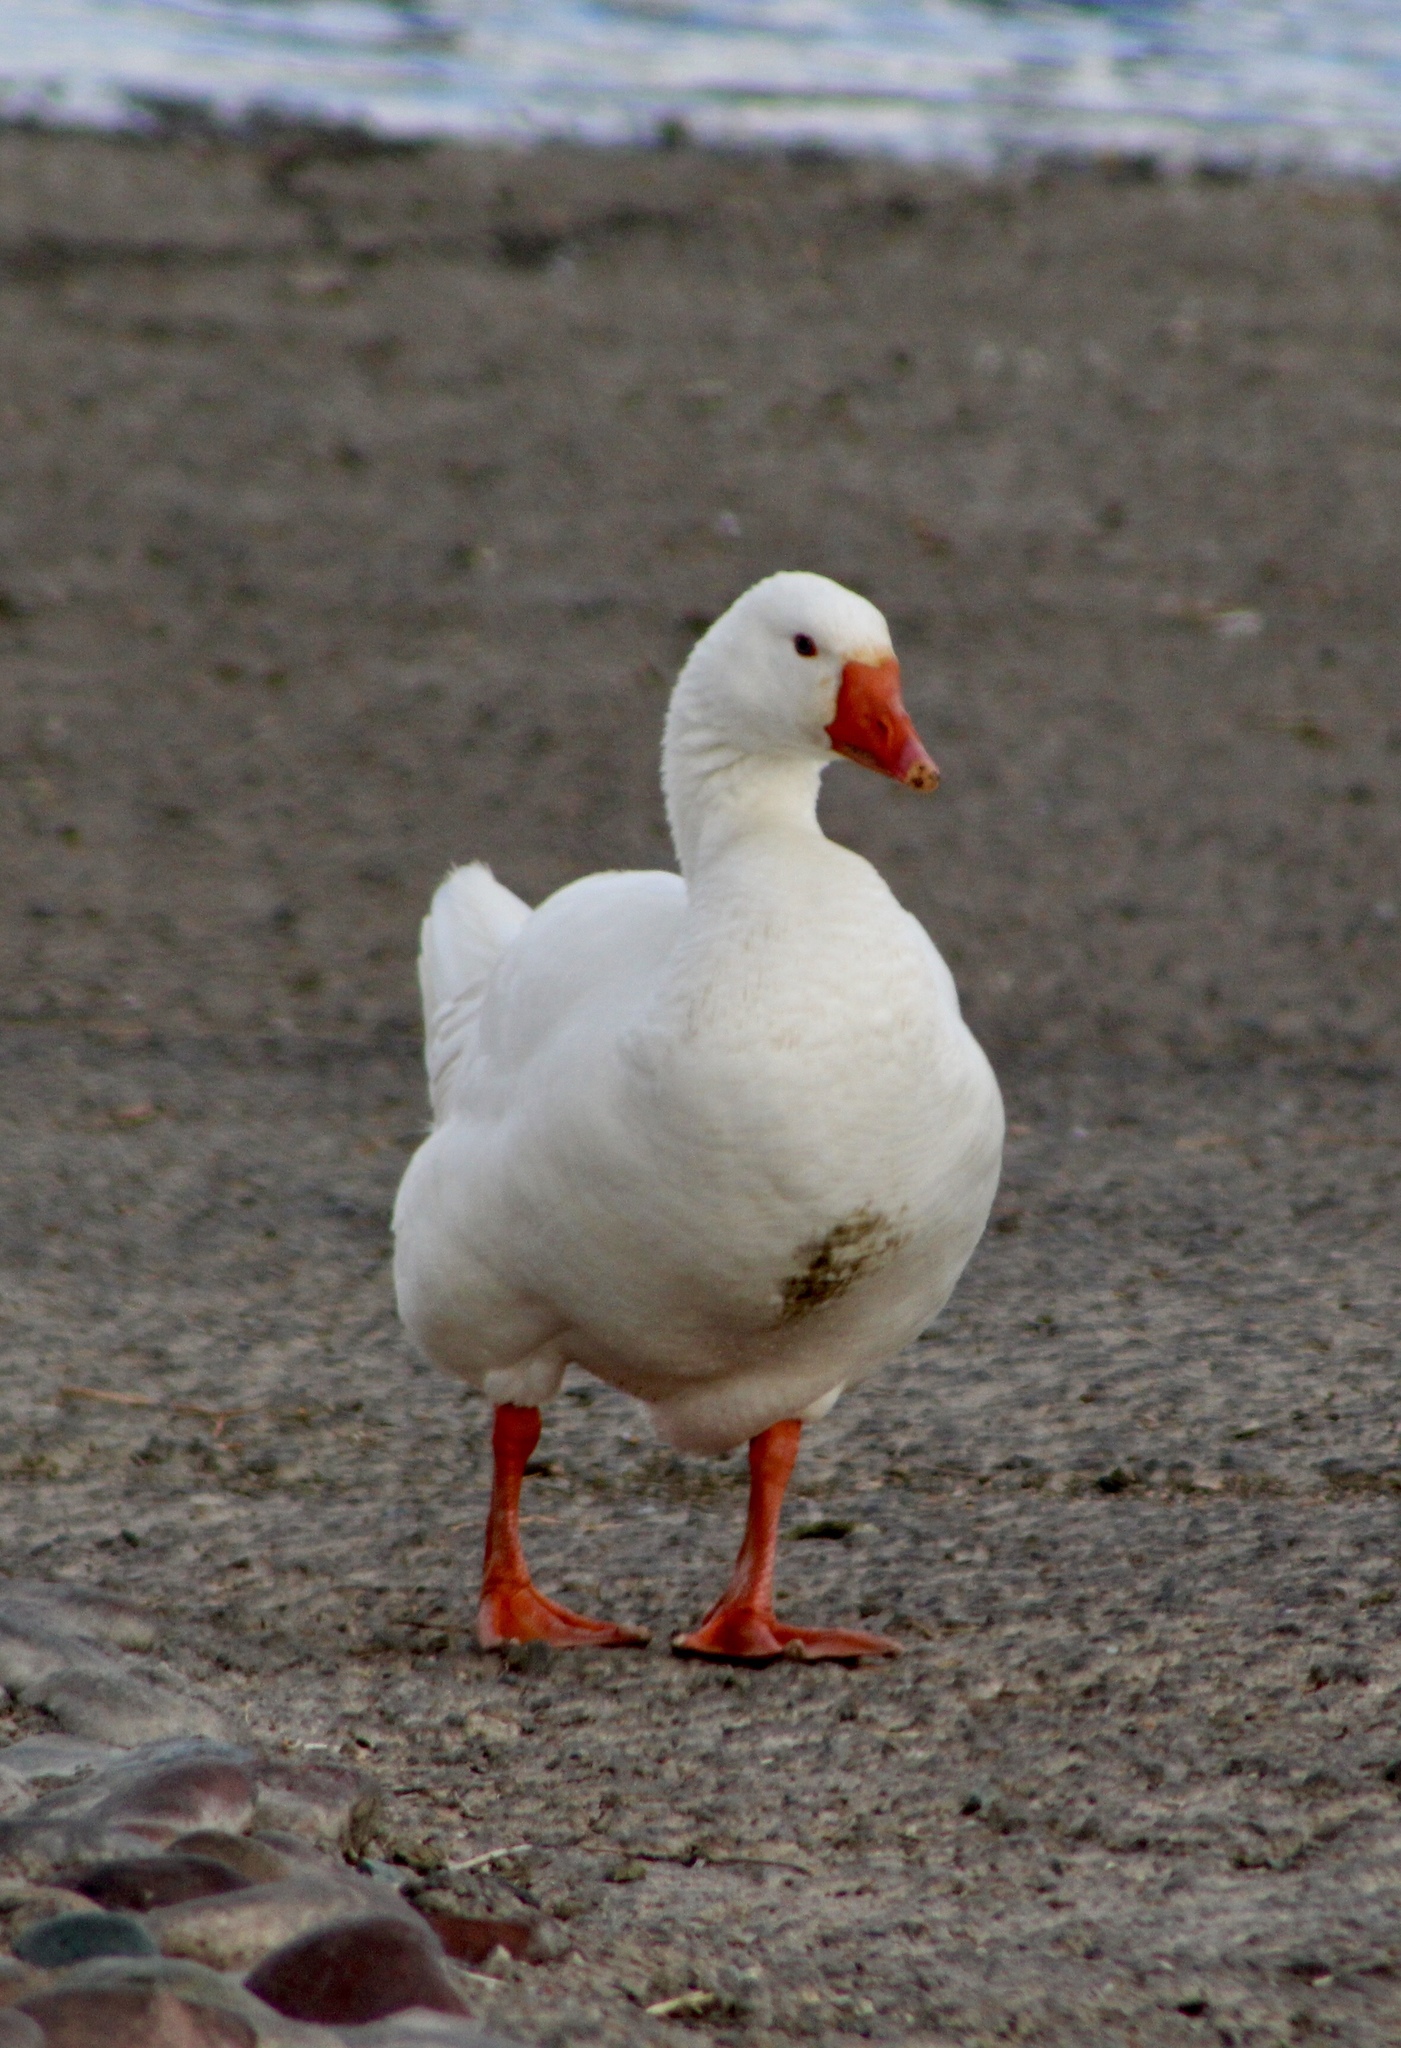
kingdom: Animalia
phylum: Chordata
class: Aves
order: Anseriformes
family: Anatidae
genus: Anser
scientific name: Anser anser
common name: Greylag goose
